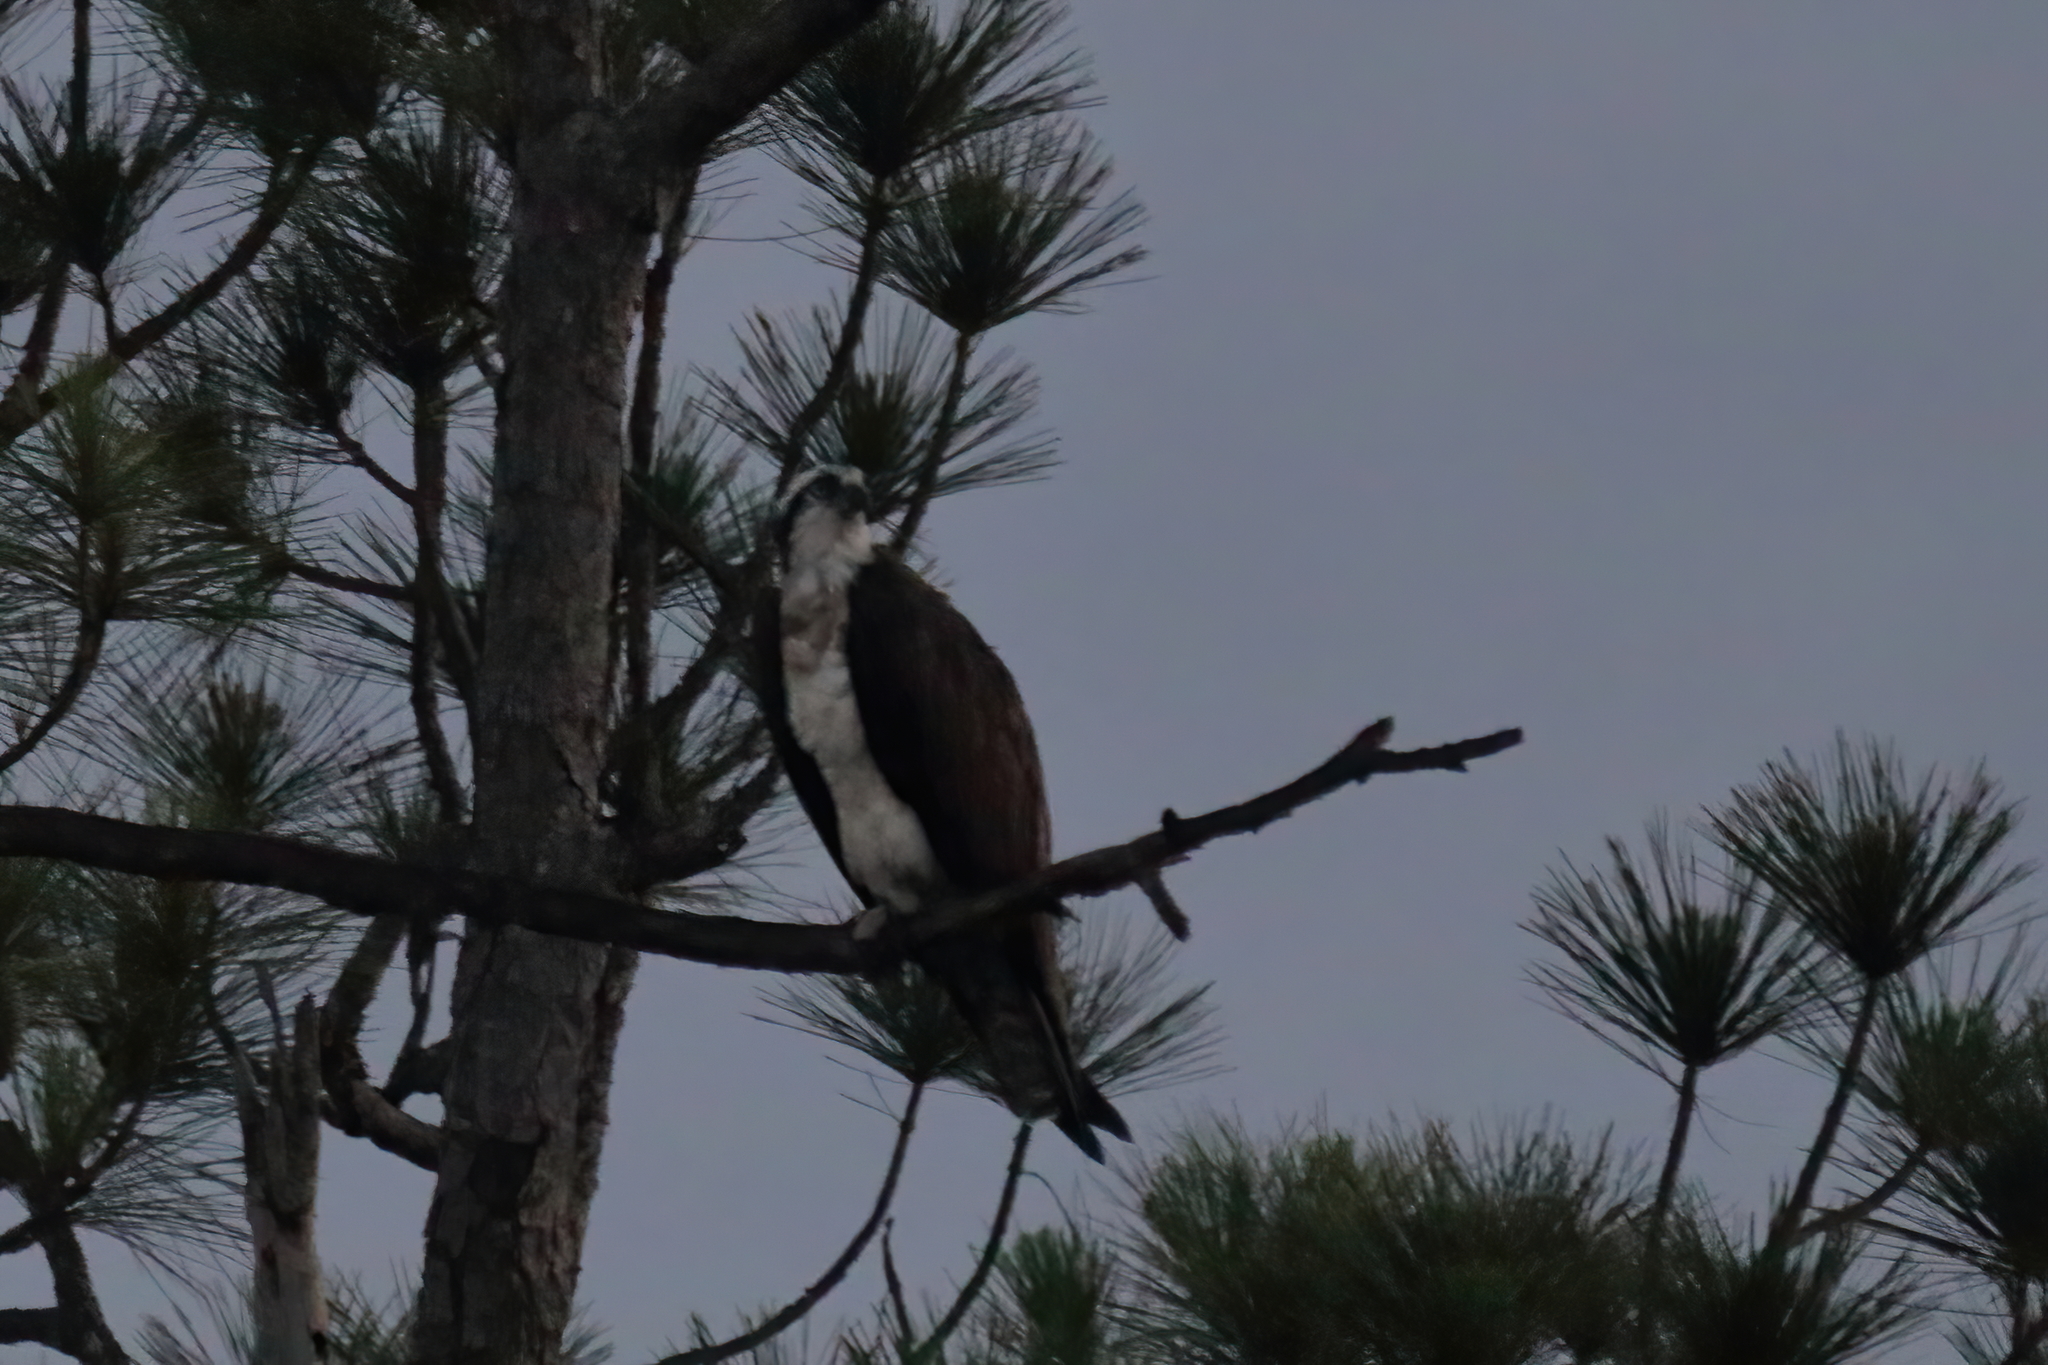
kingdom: Animalia
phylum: Chordata
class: Aves
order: Accipitriformes
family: Pandionidae
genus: Pandion
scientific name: Pandion haliaetus
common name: Osprey
